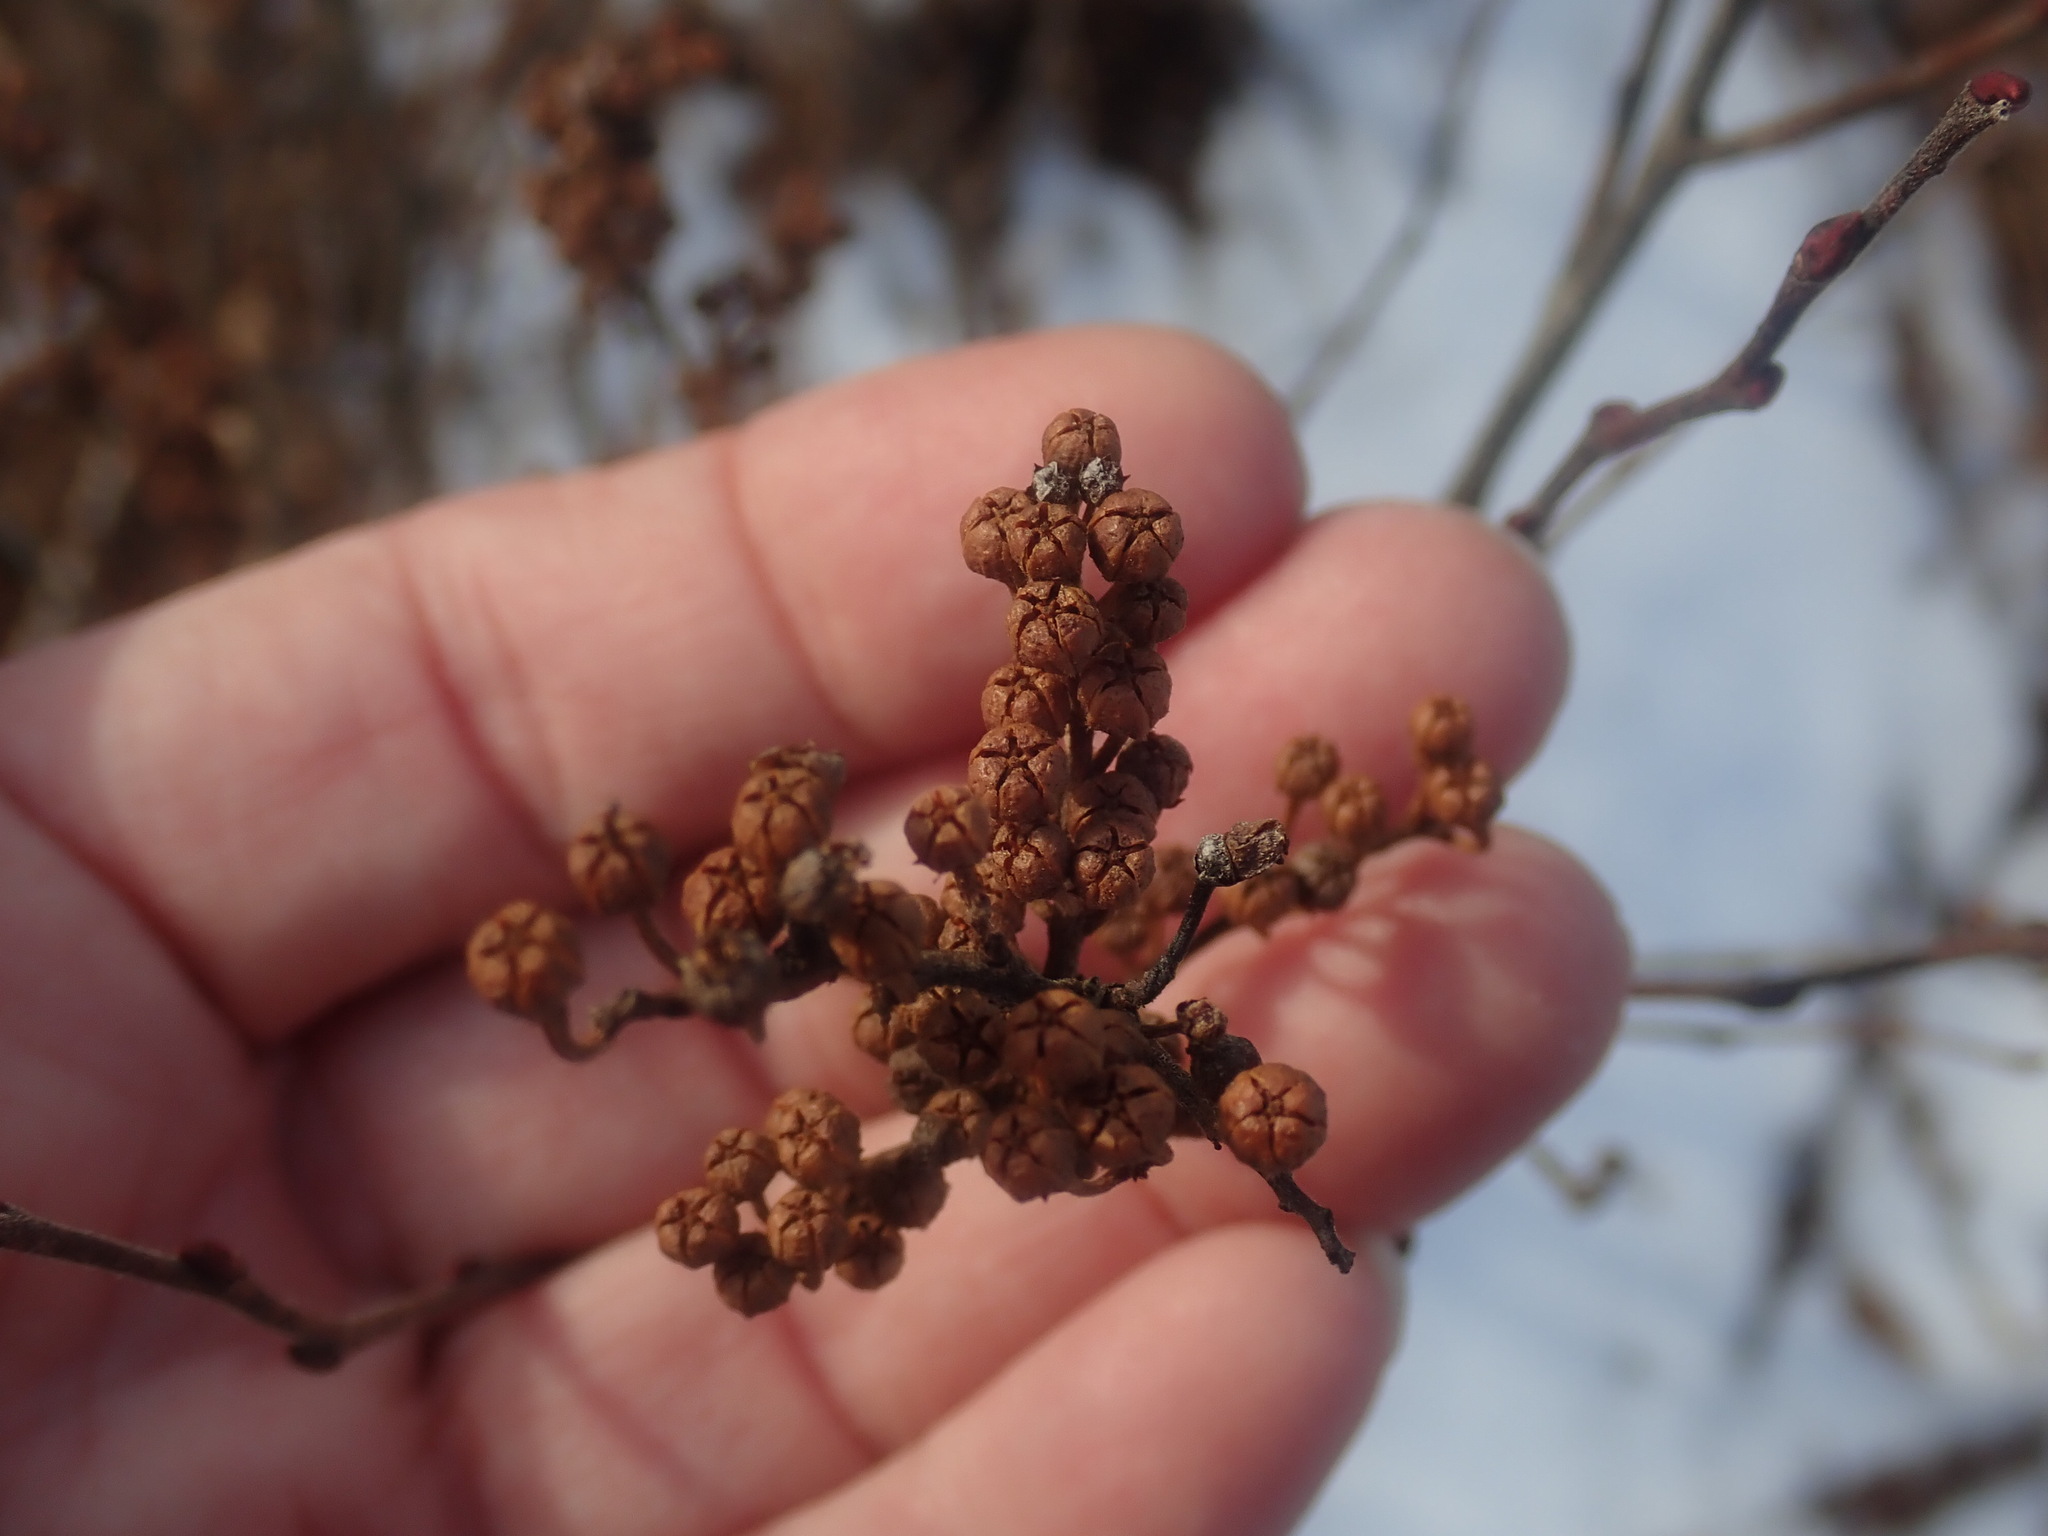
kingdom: Plantae
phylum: Tracheophyta
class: Magnoliopsida
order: Ericales
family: Ericaceae
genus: Lyonia
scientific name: Lyonia ligustrina
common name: Maleberry
